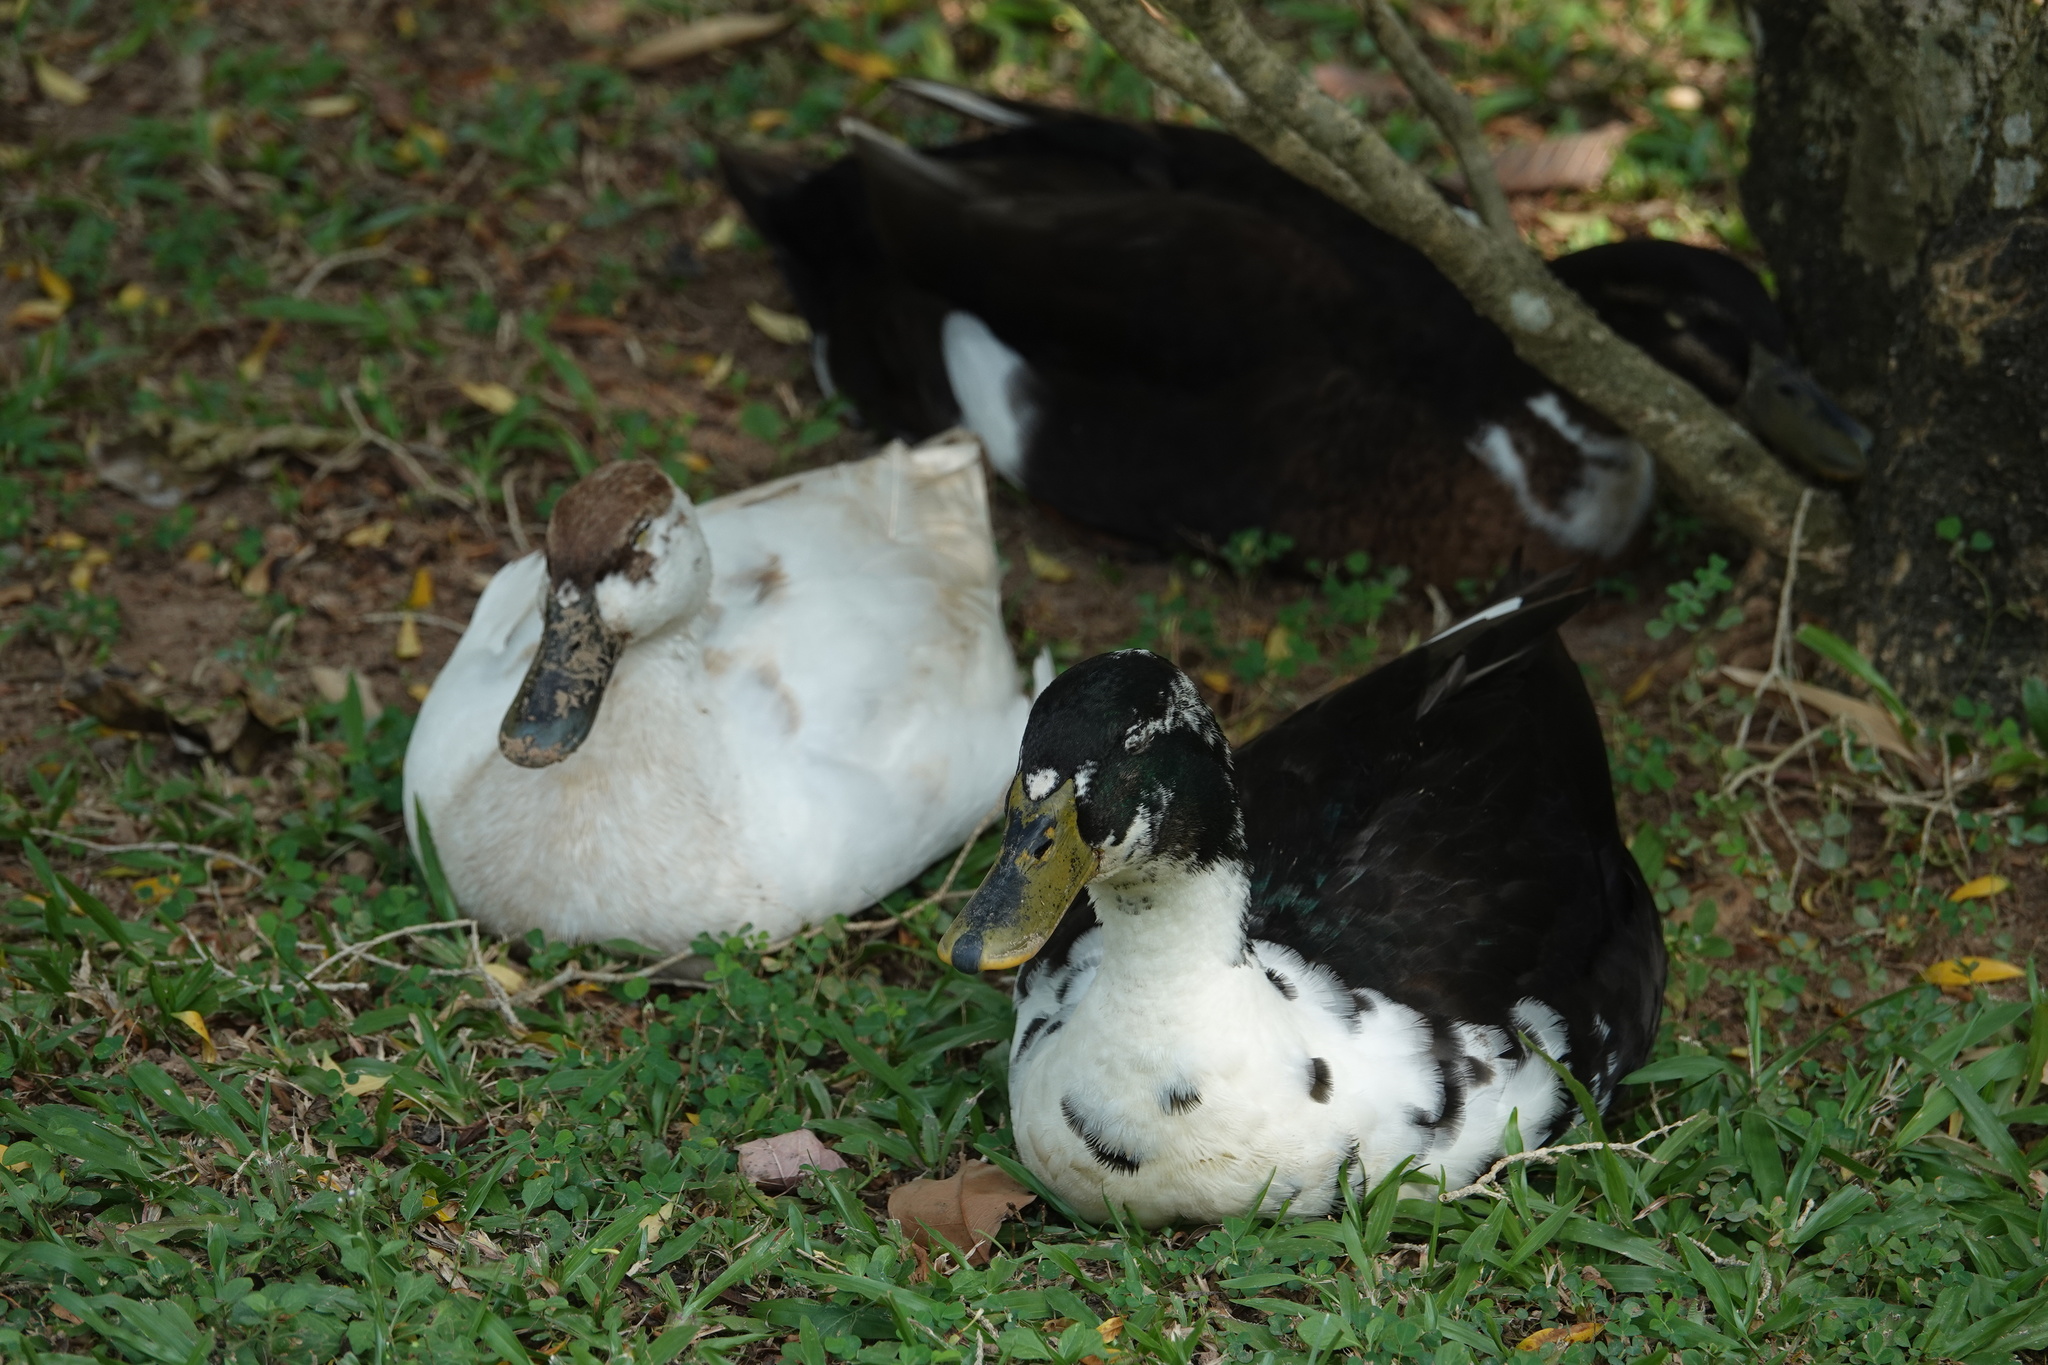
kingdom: Animalia
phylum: Chordata
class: Aves
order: Anseriformes
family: Anatidae
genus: Anas
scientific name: Anas platyrhynchos
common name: Mallard
